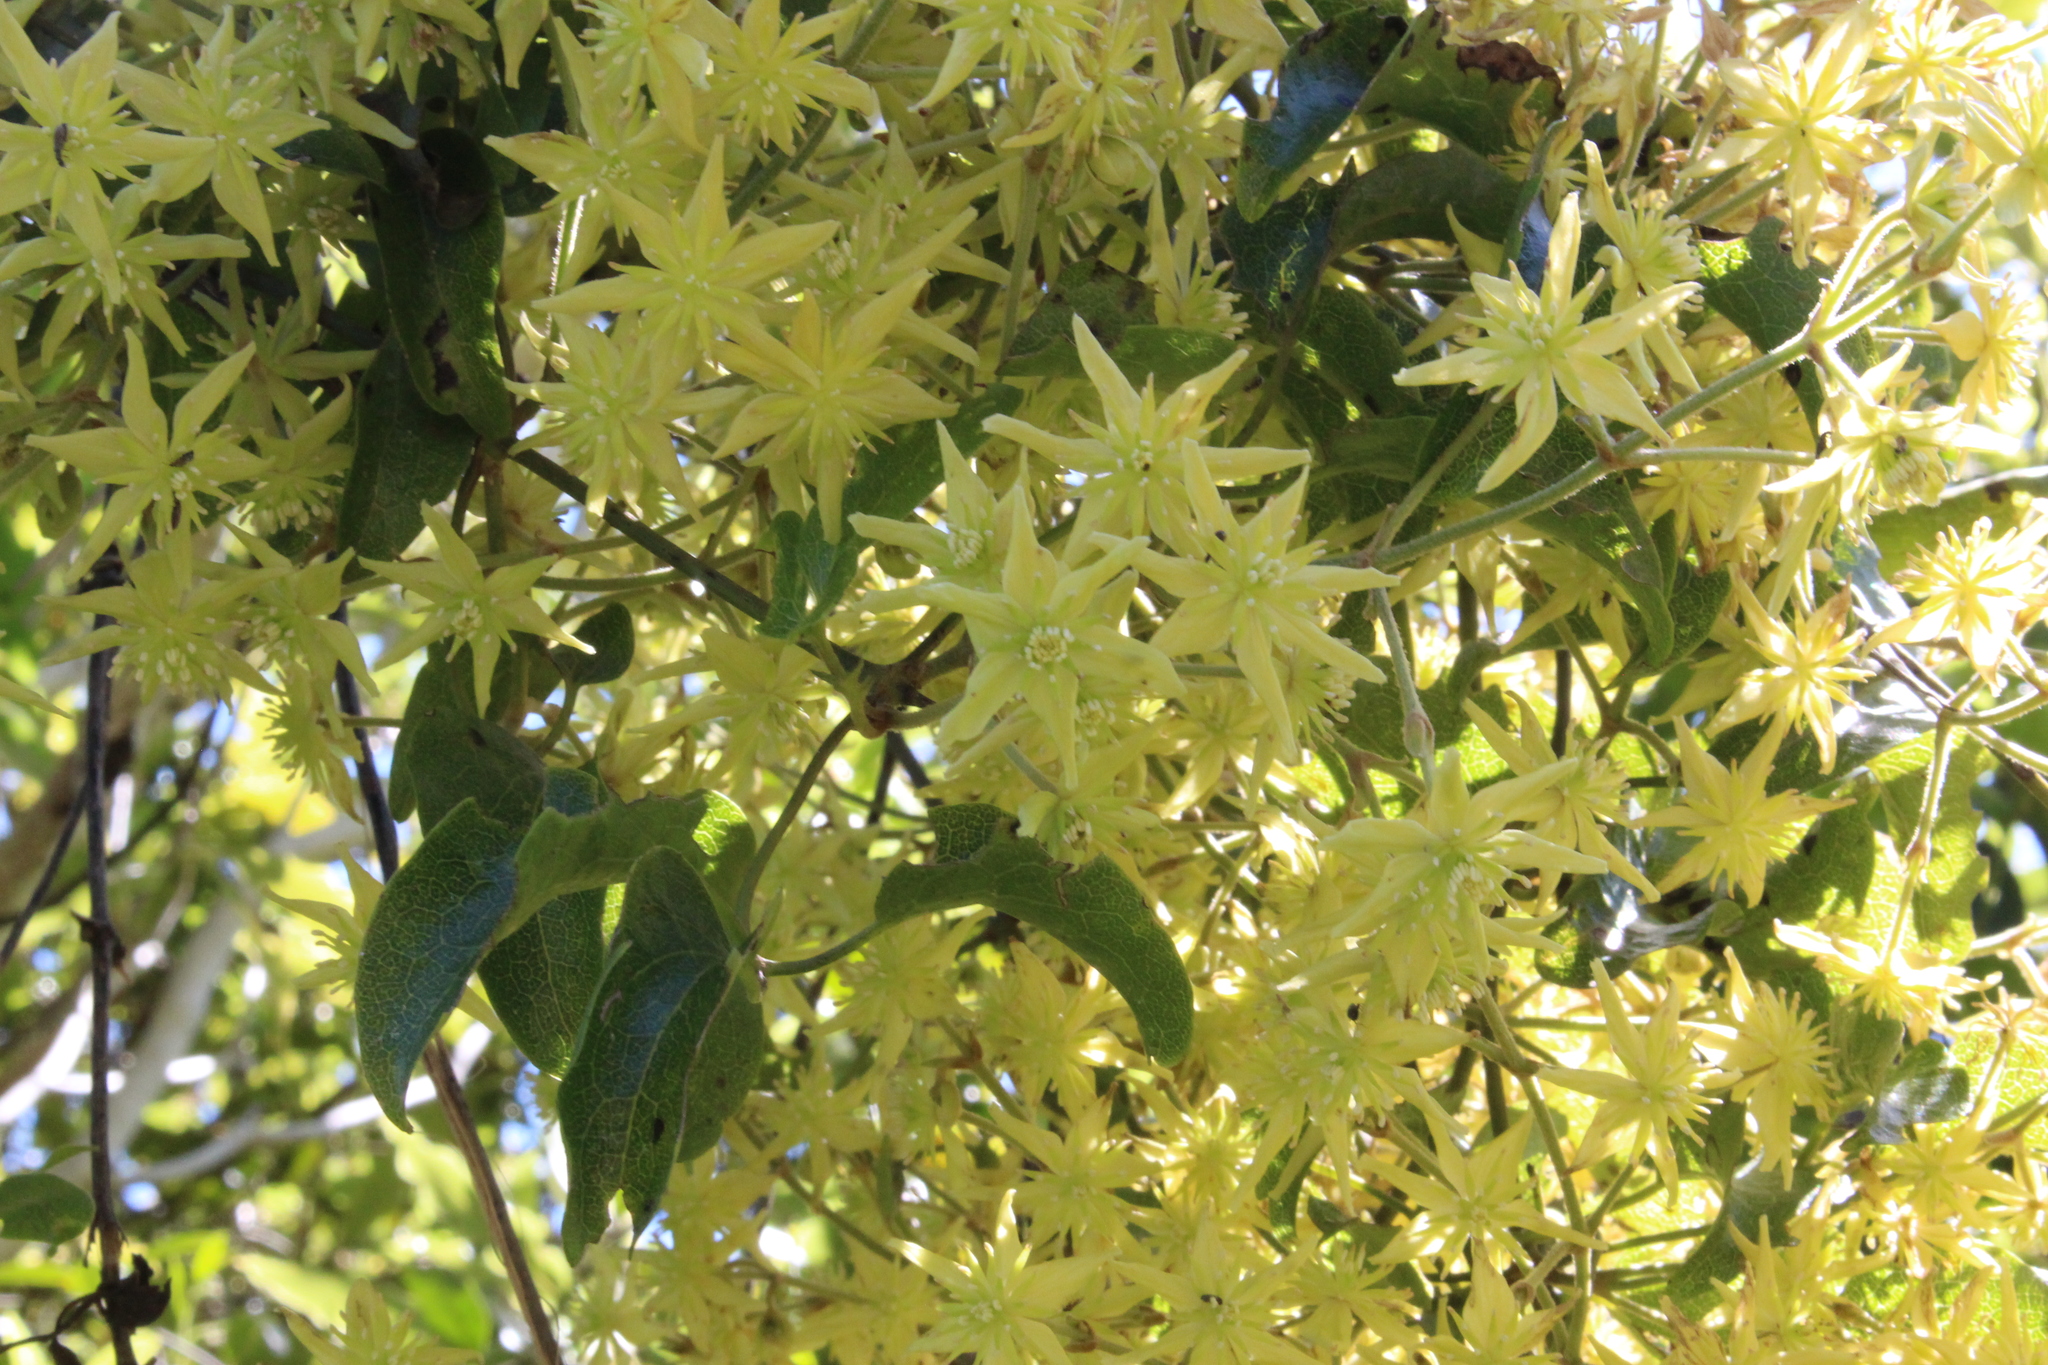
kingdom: Plantae
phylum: Tracheophyta
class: Magnoliopsida
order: Ranunculales
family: Ranunculaceae
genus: Clematis
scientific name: Clematis foetida
